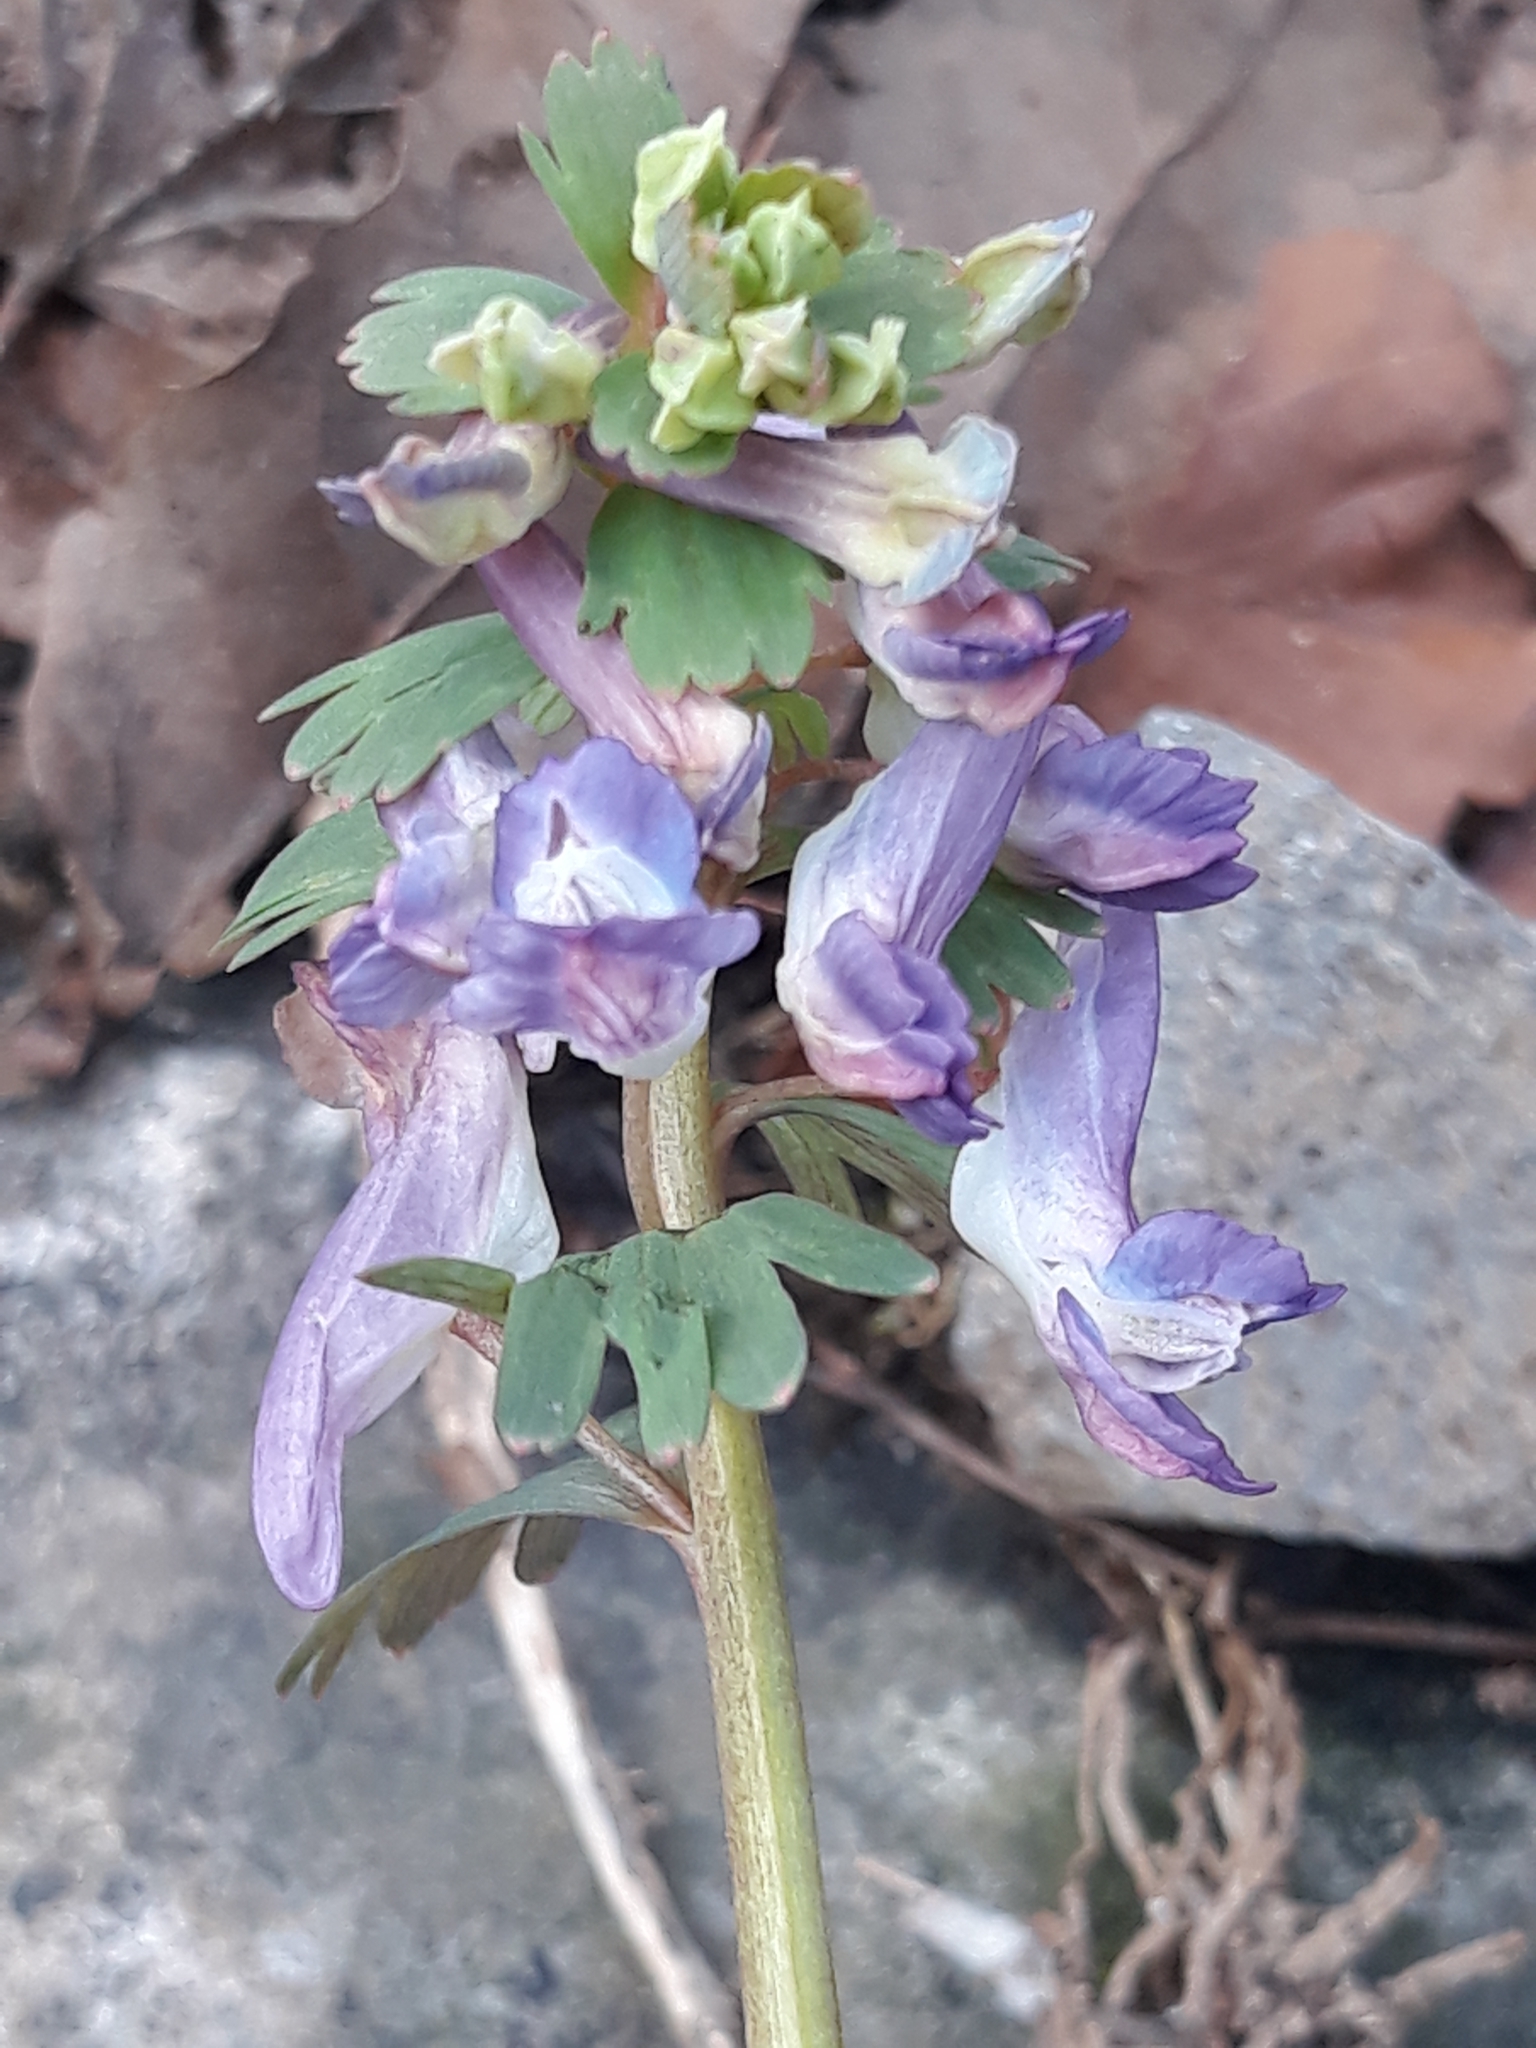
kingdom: Plantae
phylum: Tracheophyta
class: Magnoliopsida
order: Ranunculales
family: Papaveraceae
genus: Corydalis
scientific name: Corydalis solida
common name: Bird-in-a-bush
